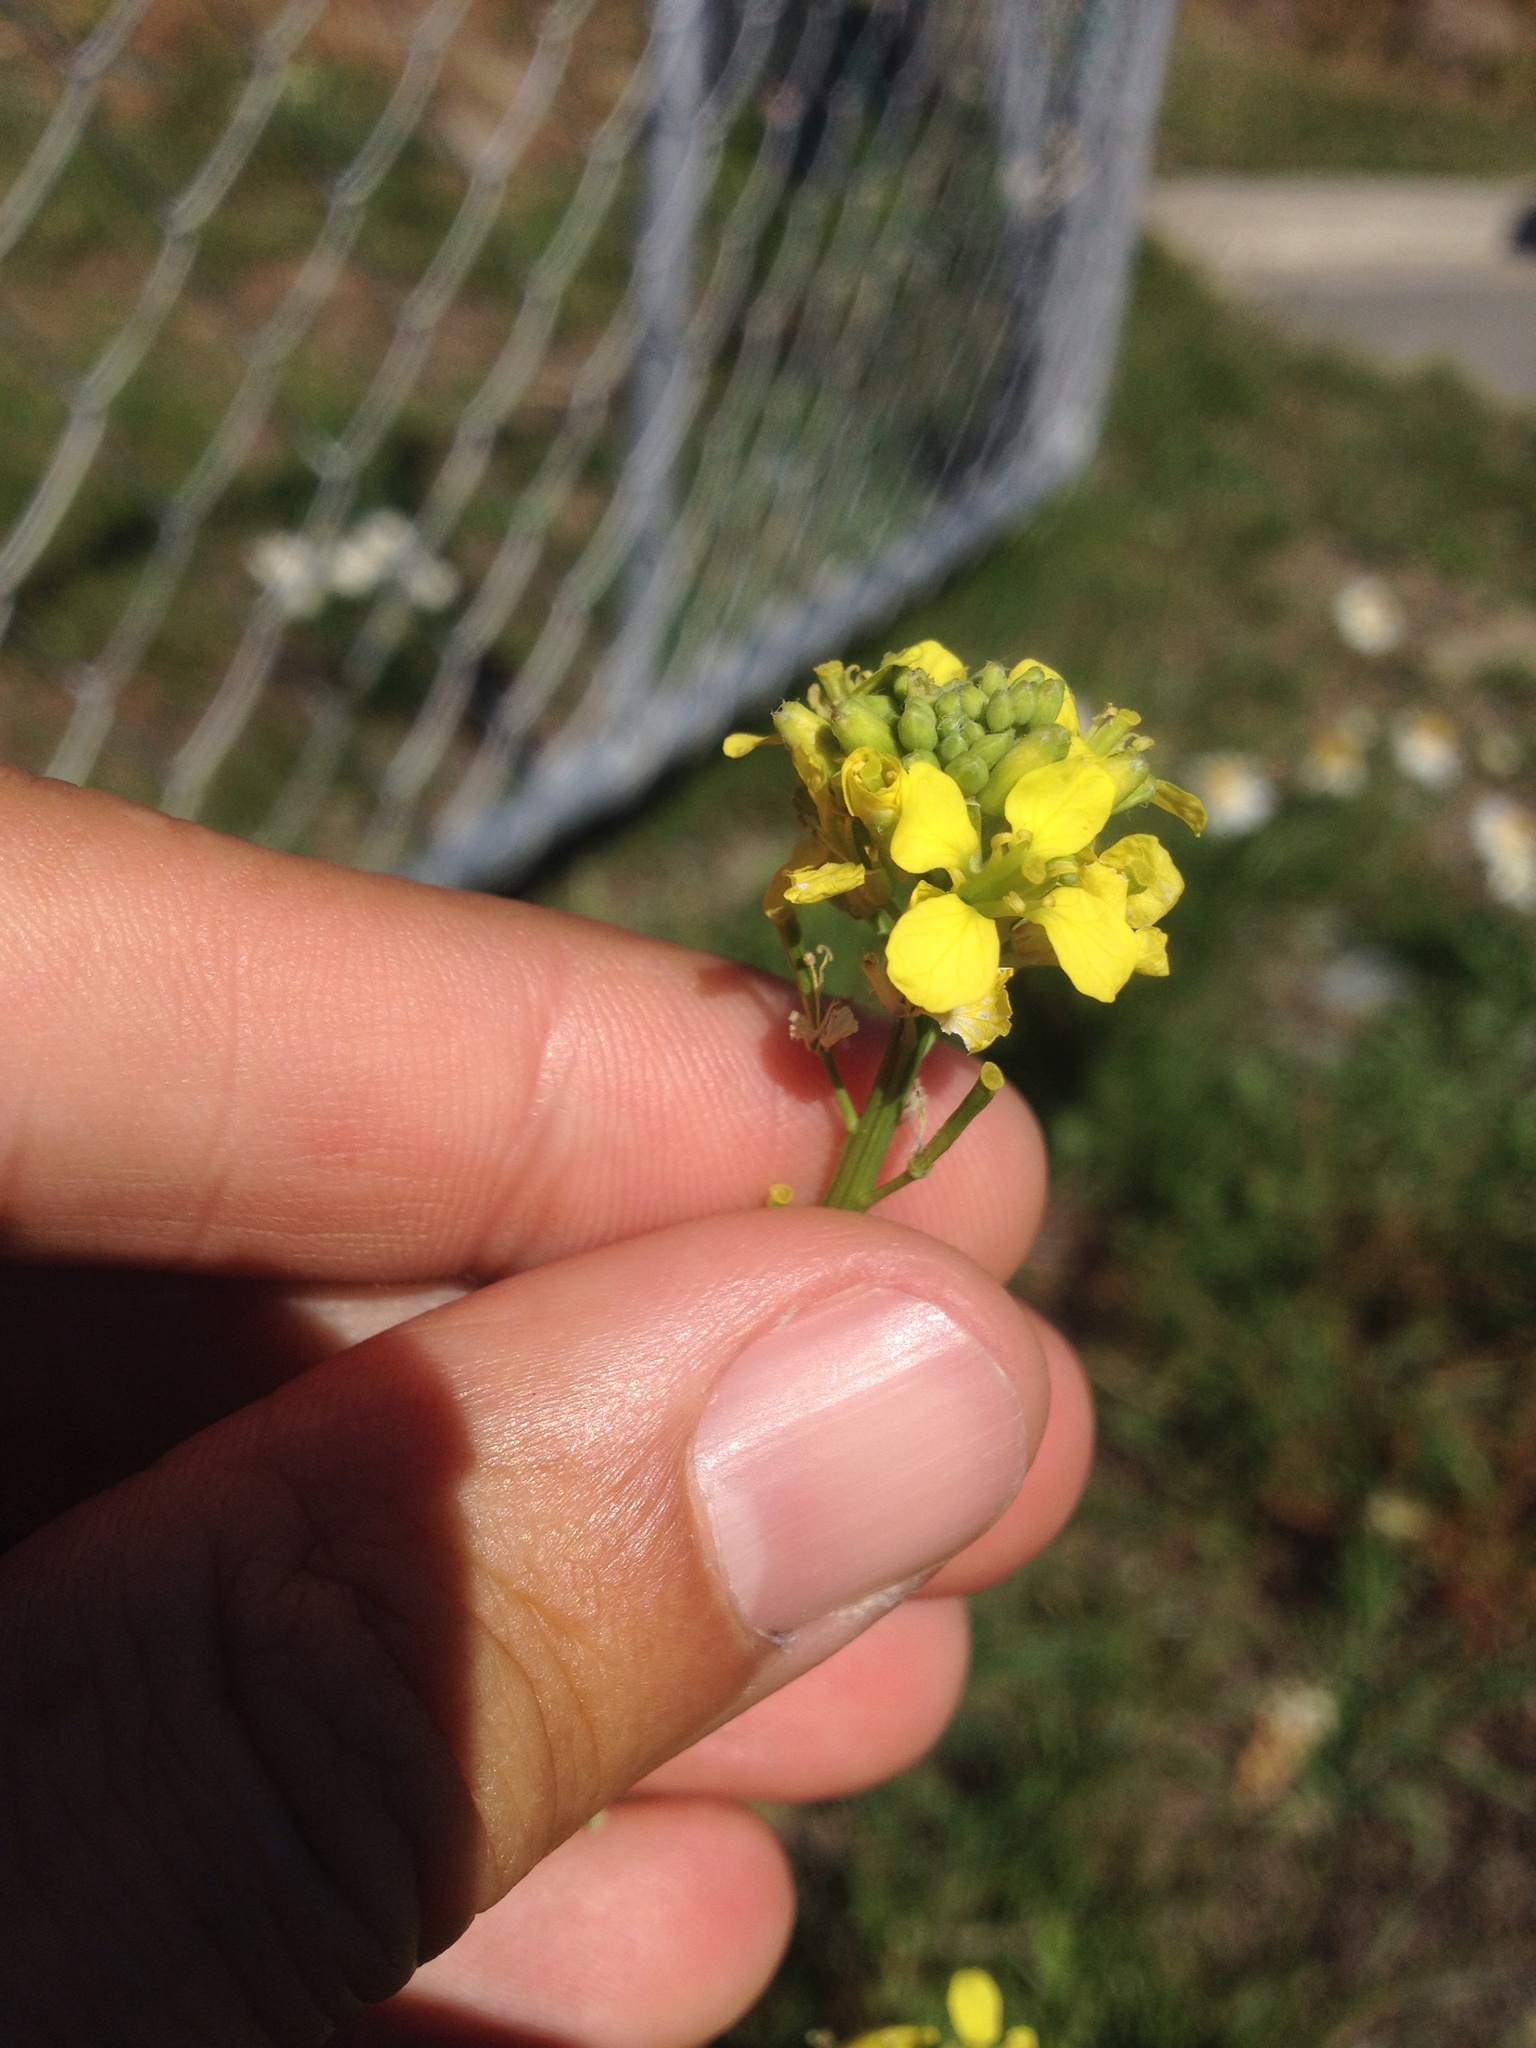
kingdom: Plantae
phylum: Tracheophyta
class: Magnoliopsida
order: Brassicales
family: Brassicaceae
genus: Brassica
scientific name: Brassica rapa
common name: Field mustard
